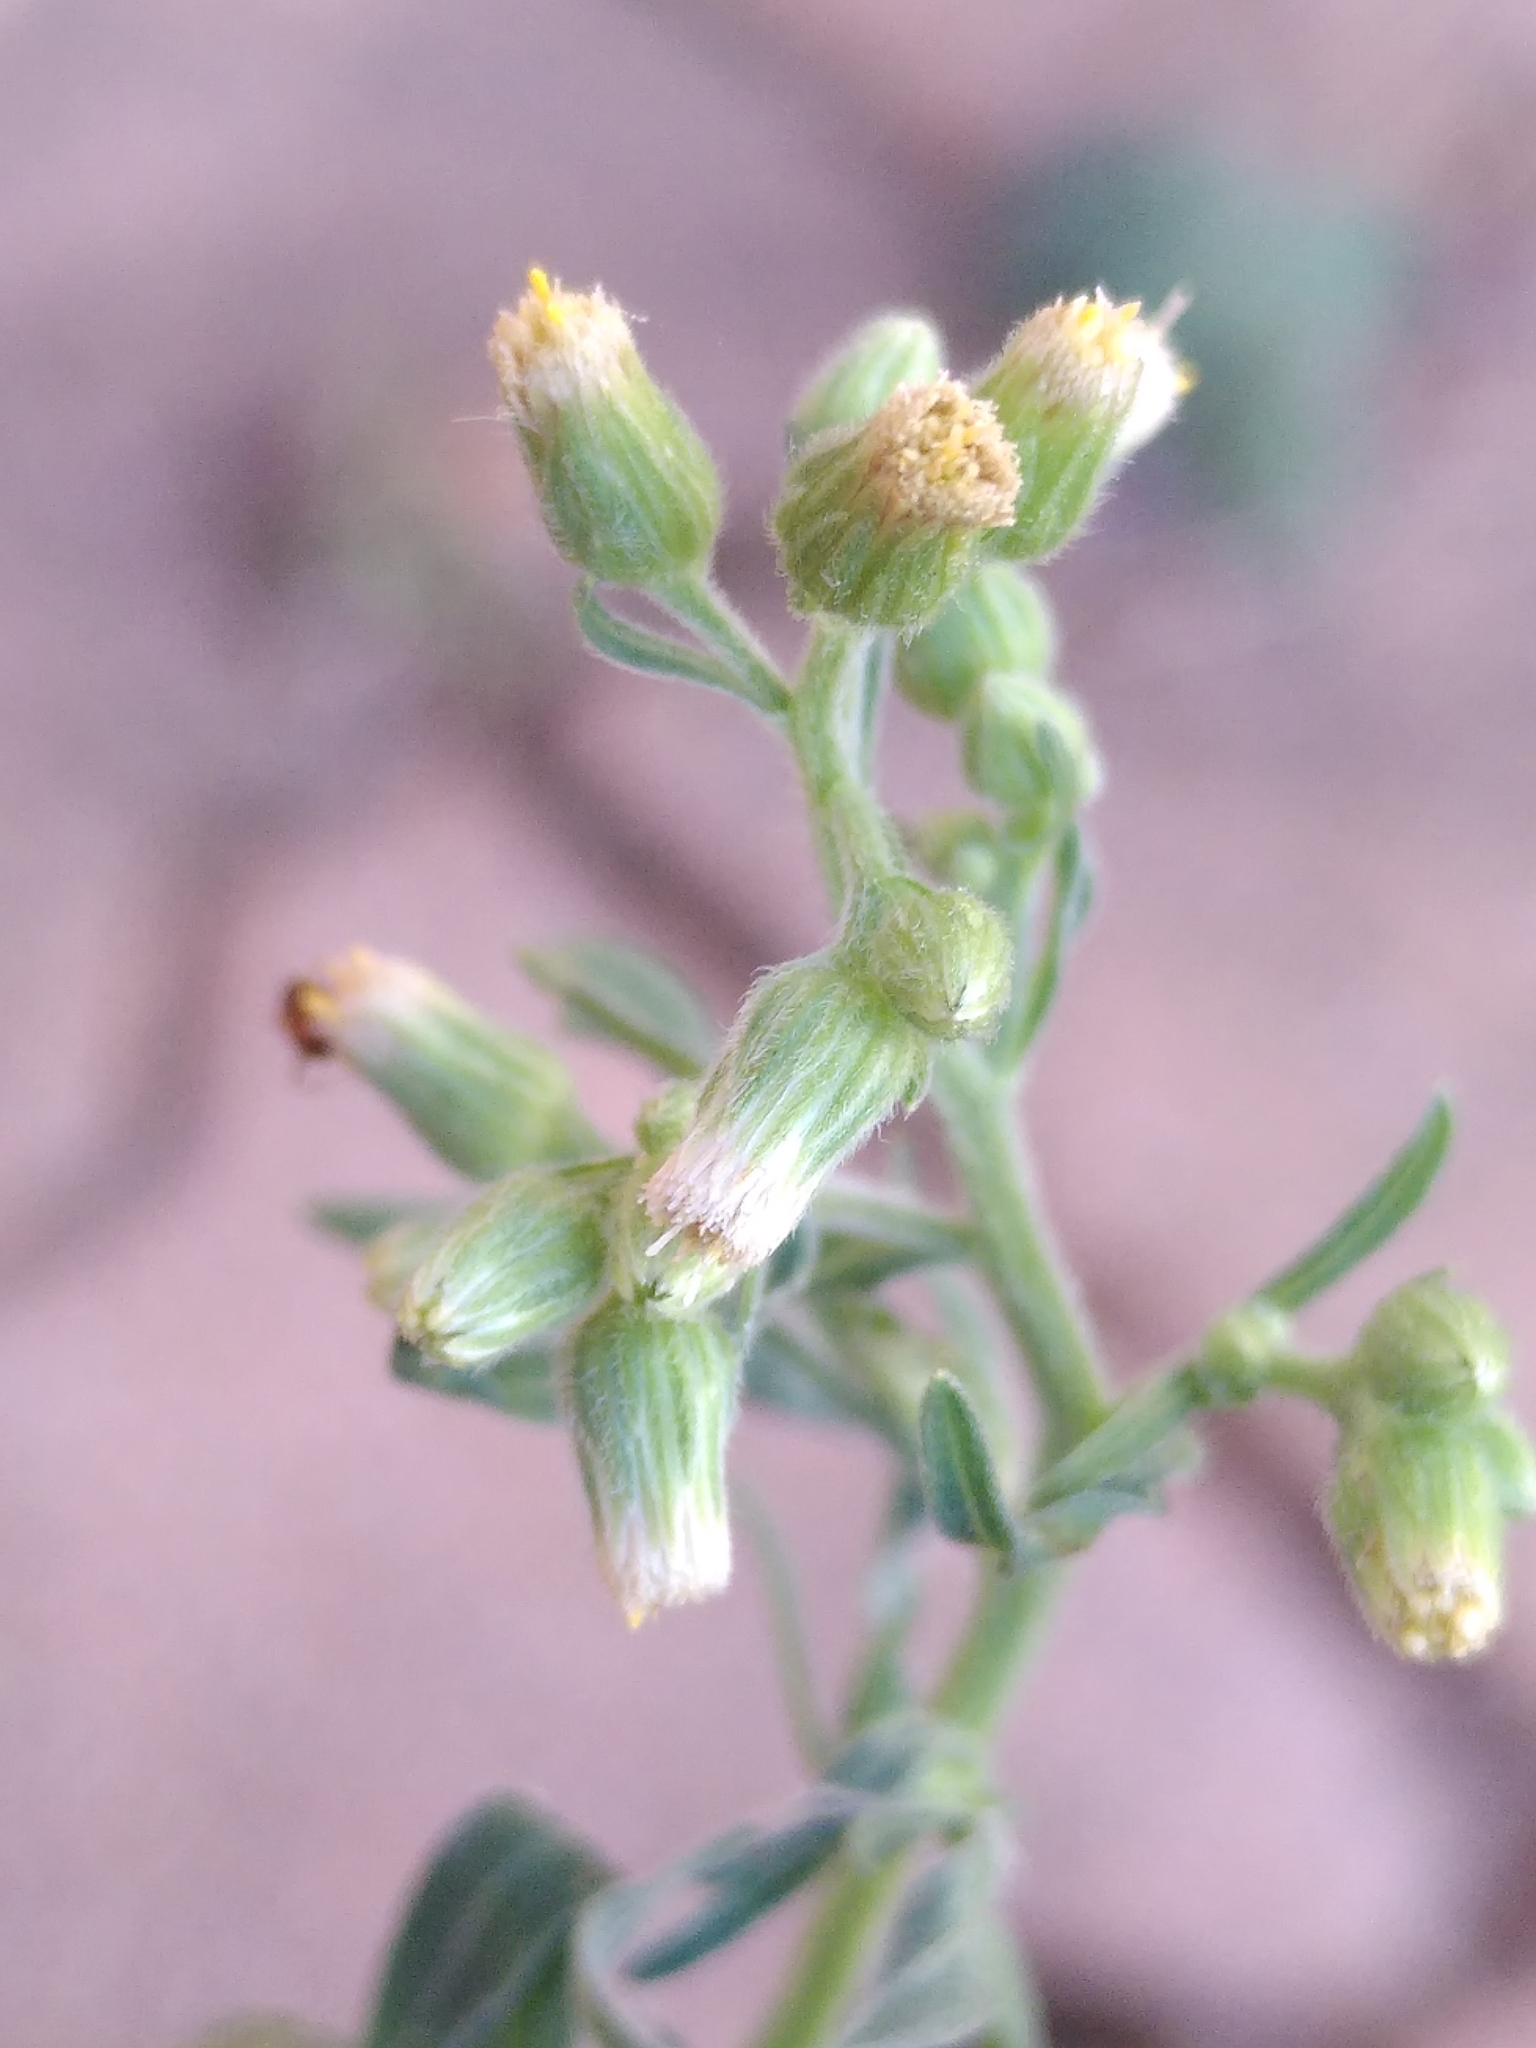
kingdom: Plantae
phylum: Tracheophyta
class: Magnoliopsida
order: Asterales
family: Asteraceae
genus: Erigeron
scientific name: Erigeron bonariensis
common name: Argentine fleabane
